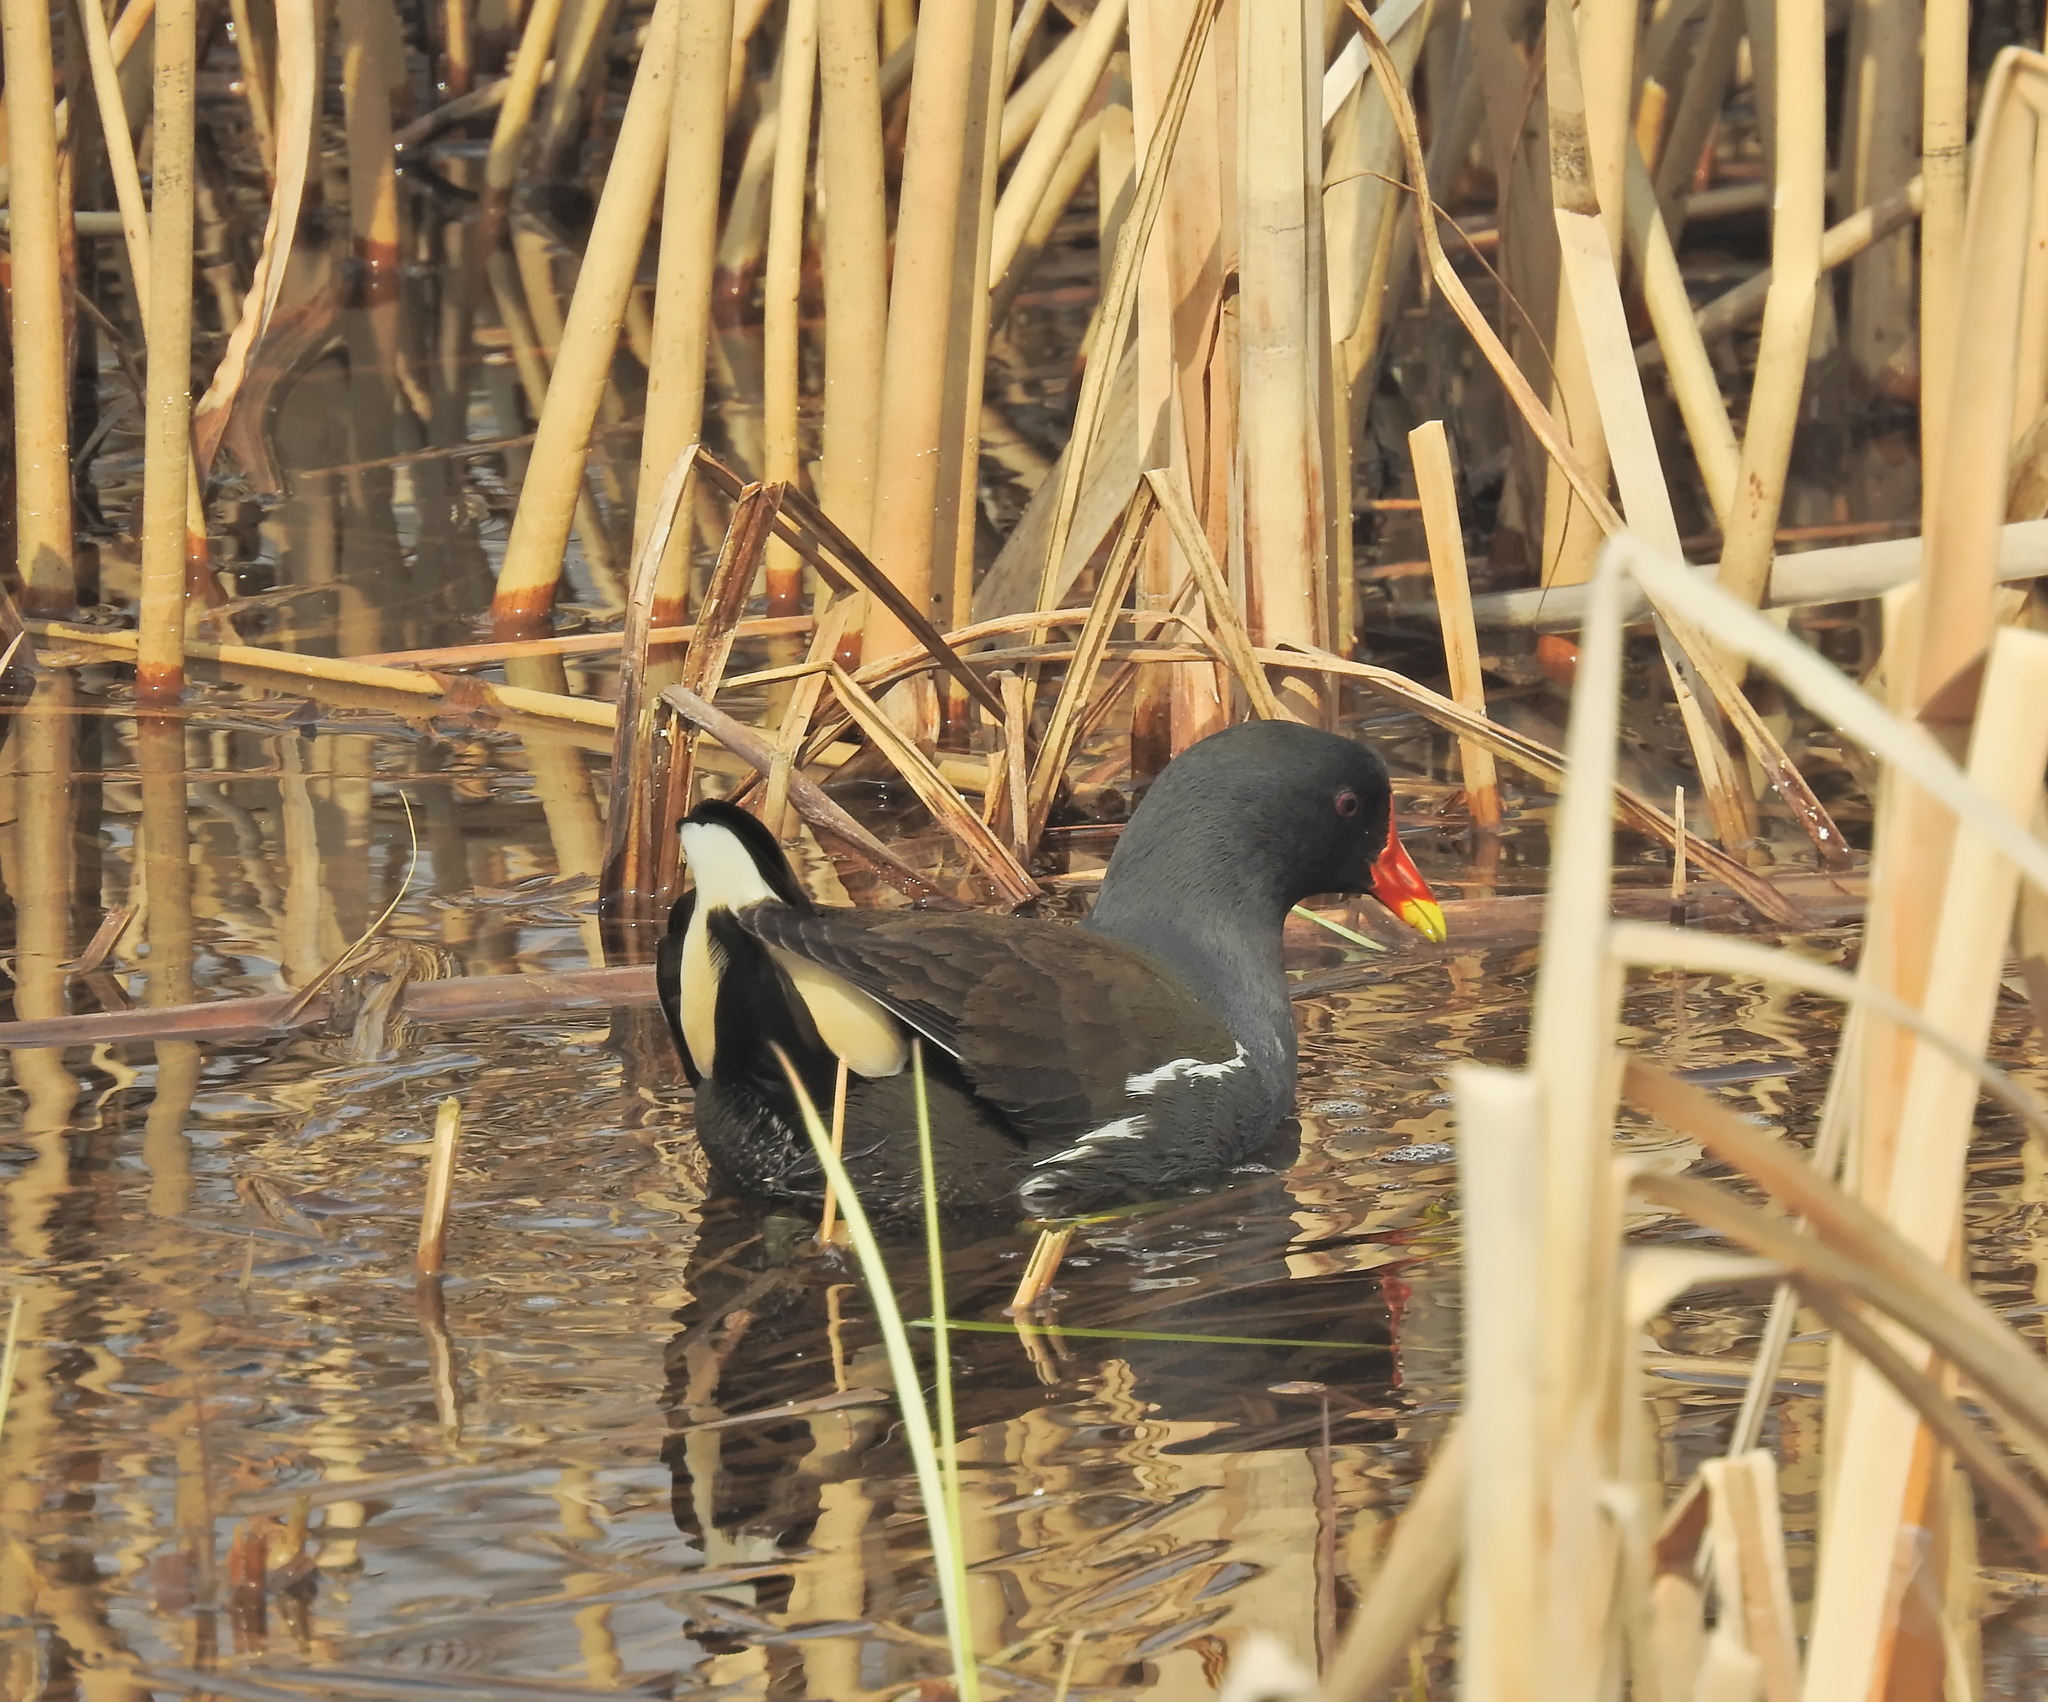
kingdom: Animalia
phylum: Chordata
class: Aves
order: Gruiformes
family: Rallidae
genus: Gallinula
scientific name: Gallinula chloropus
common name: Common moorhen
